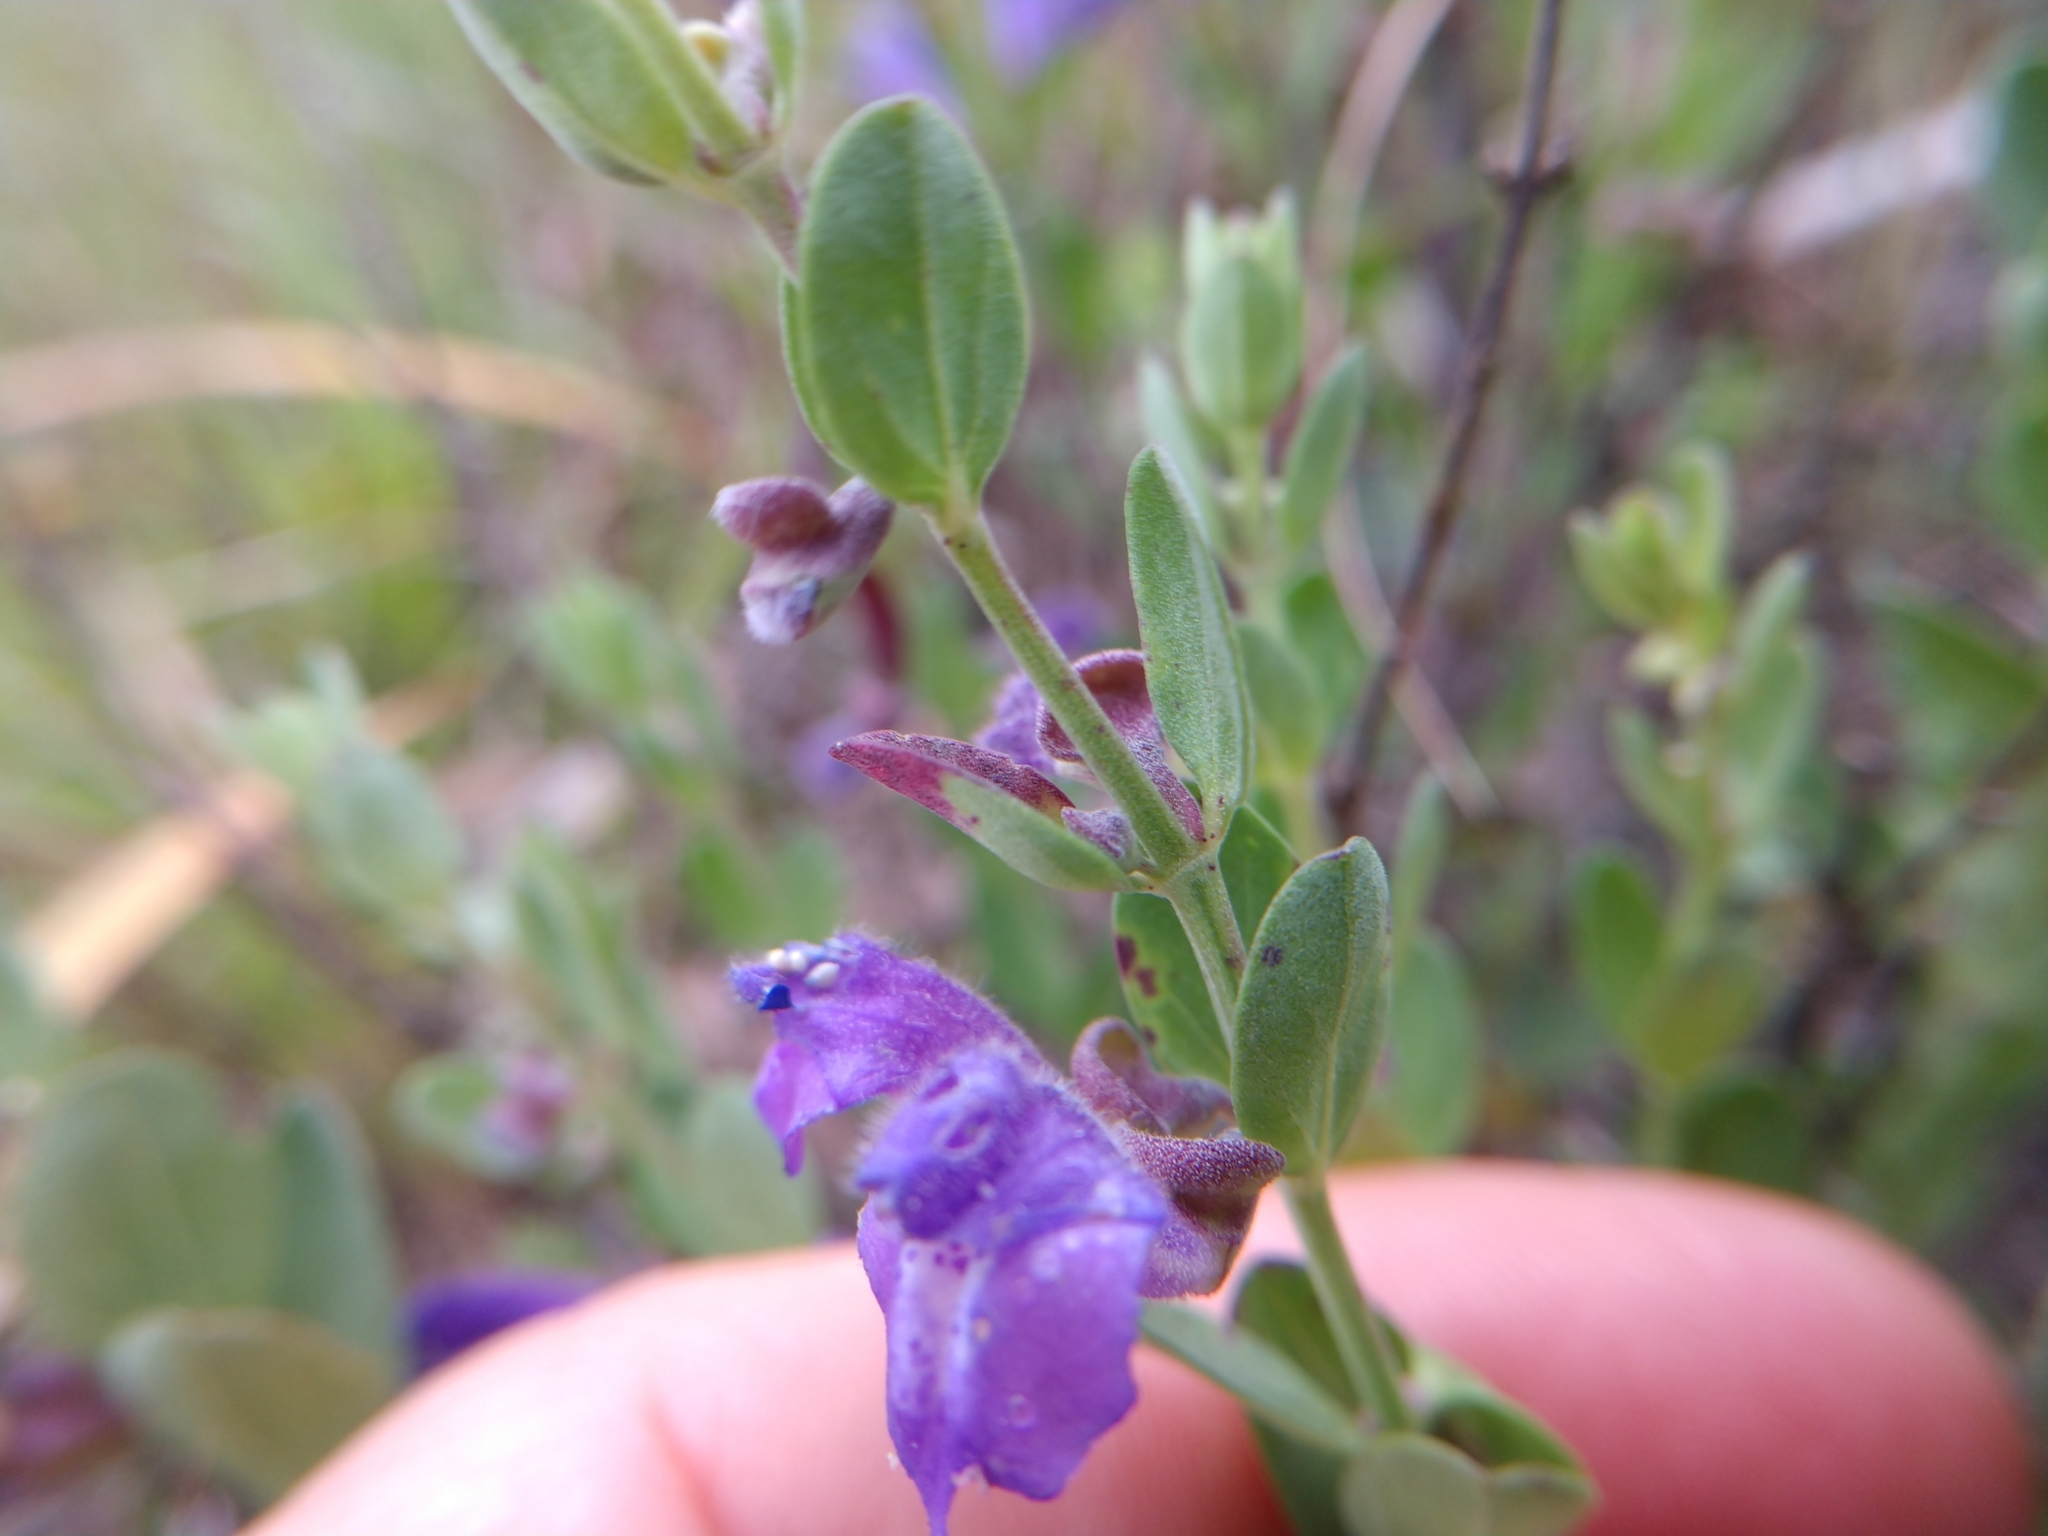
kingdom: Plantae
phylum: Tracheophyta
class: Magnoliopsida
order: Lamiales
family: Lamiaceae
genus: Scutellaria
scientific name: Scutellaria wrightii
